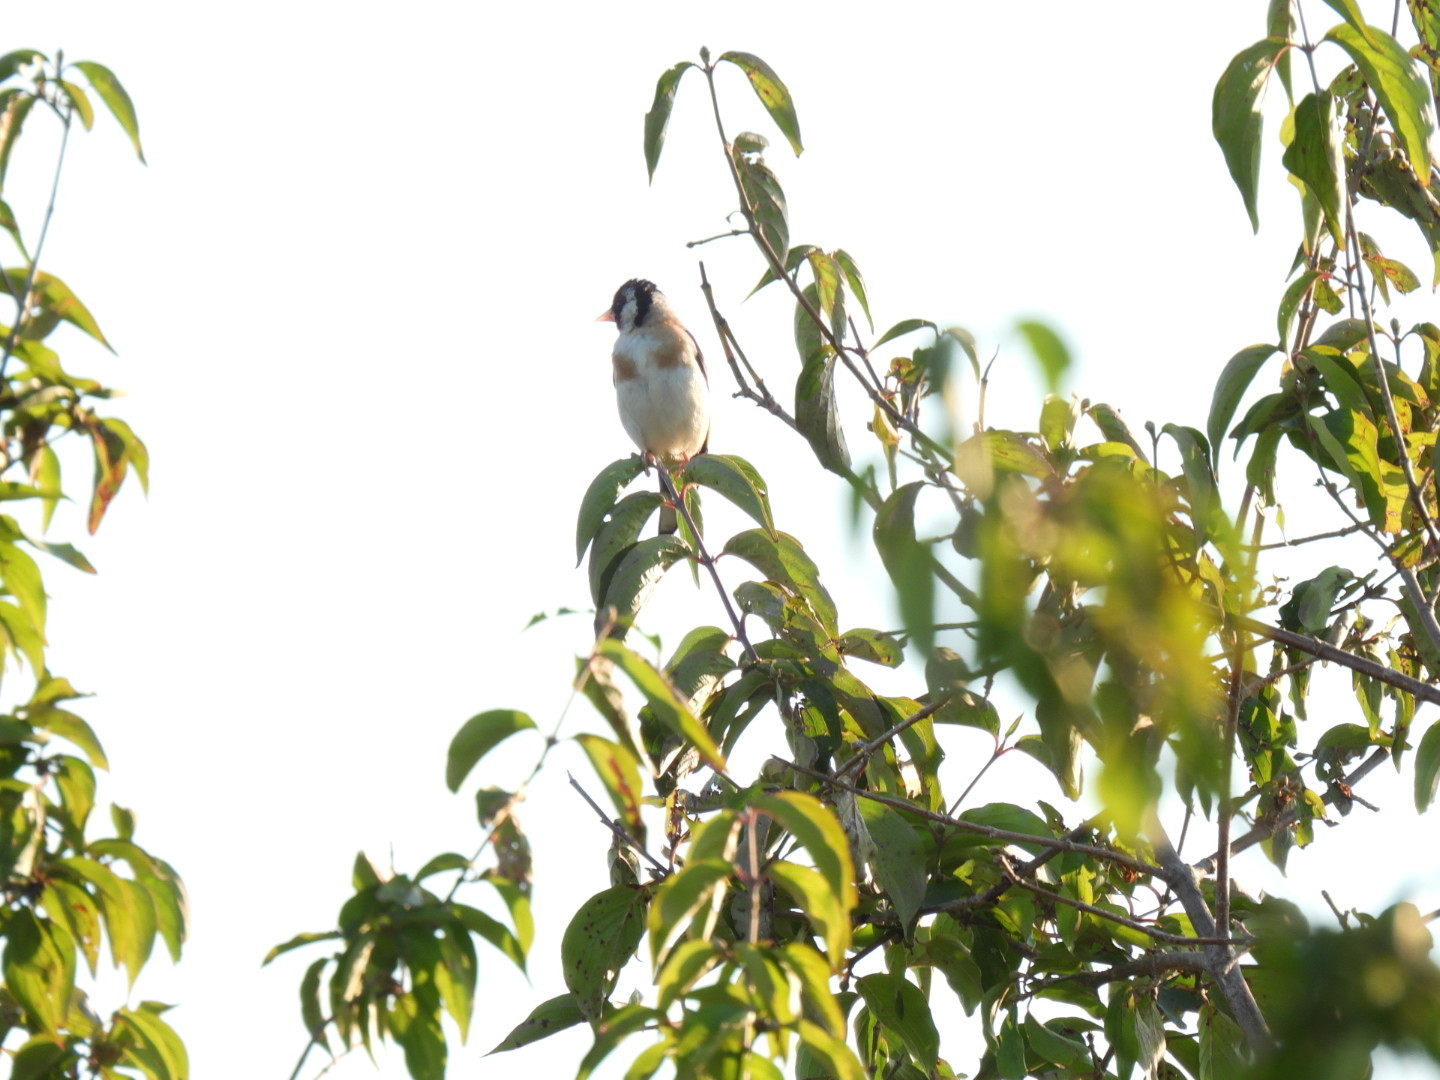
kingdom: Animalia
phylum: Chordata
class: Aves
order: Passeriformes
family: Fringillidae
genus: Carduelis
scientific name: Carduelis carduelis
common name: European goldfinch
